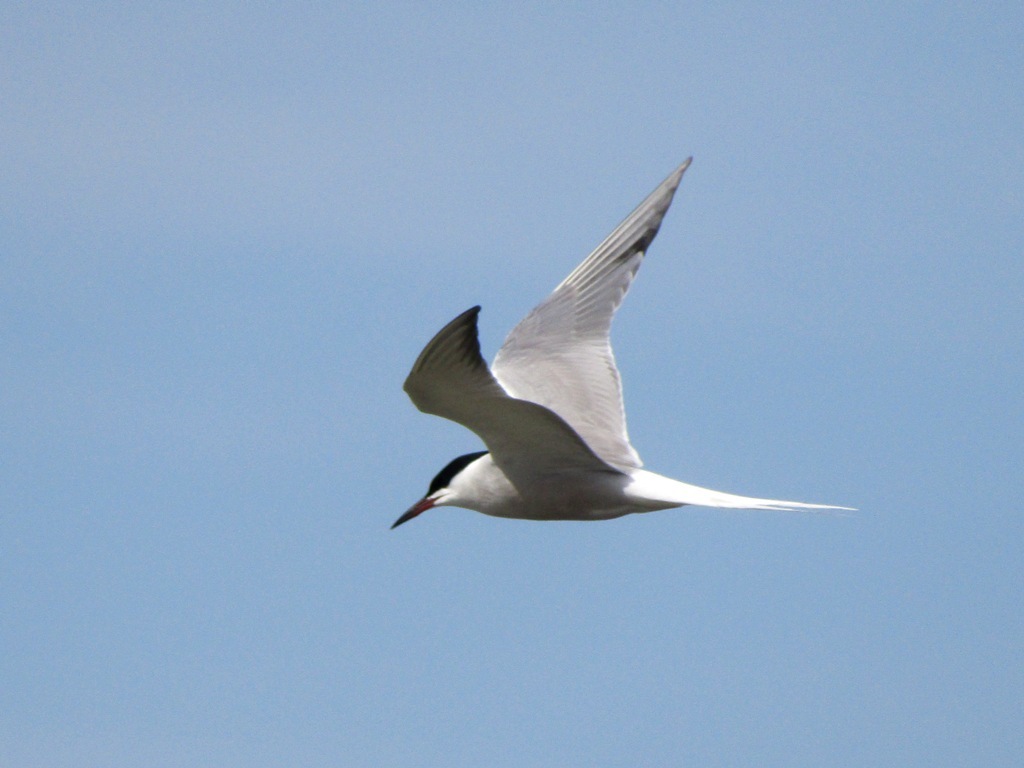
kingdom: Animalia
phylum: Chordata
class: Aves
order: Charadriiformes
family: Laridae
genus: Sterna
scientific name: Sterna hirundo
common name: Common tern
